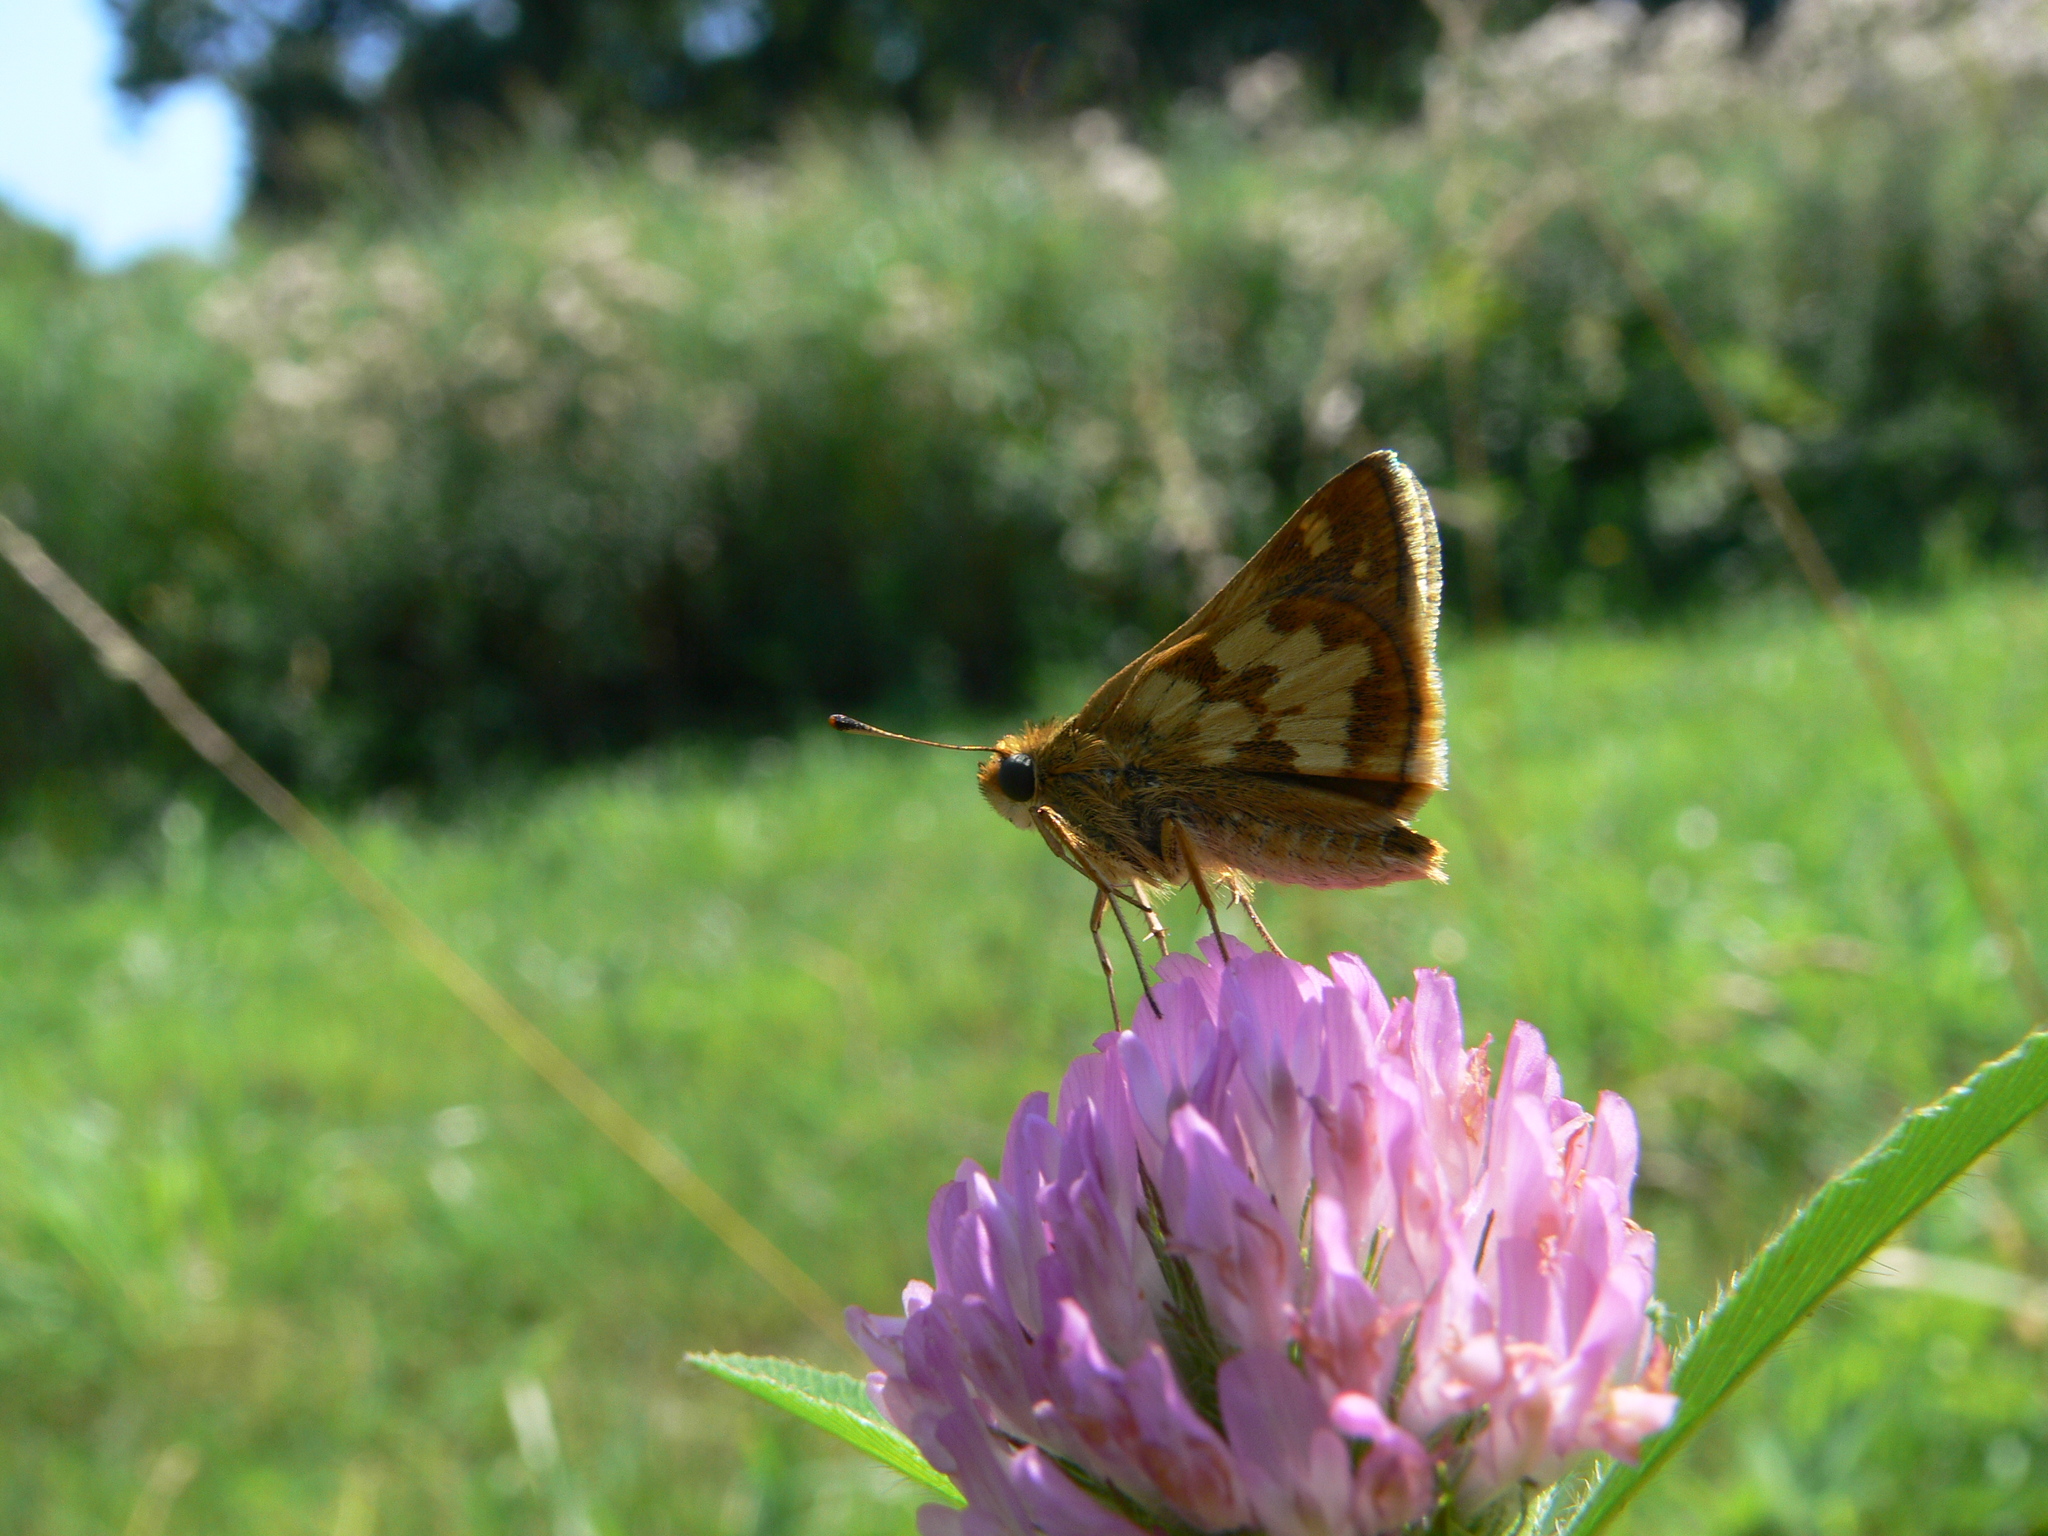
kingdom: Animalia
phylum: Arthropoda
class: Insecta
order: Lepidoptera
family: Hesperiidae
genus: Polites
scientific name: Polites coras
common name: Peck's skipper
